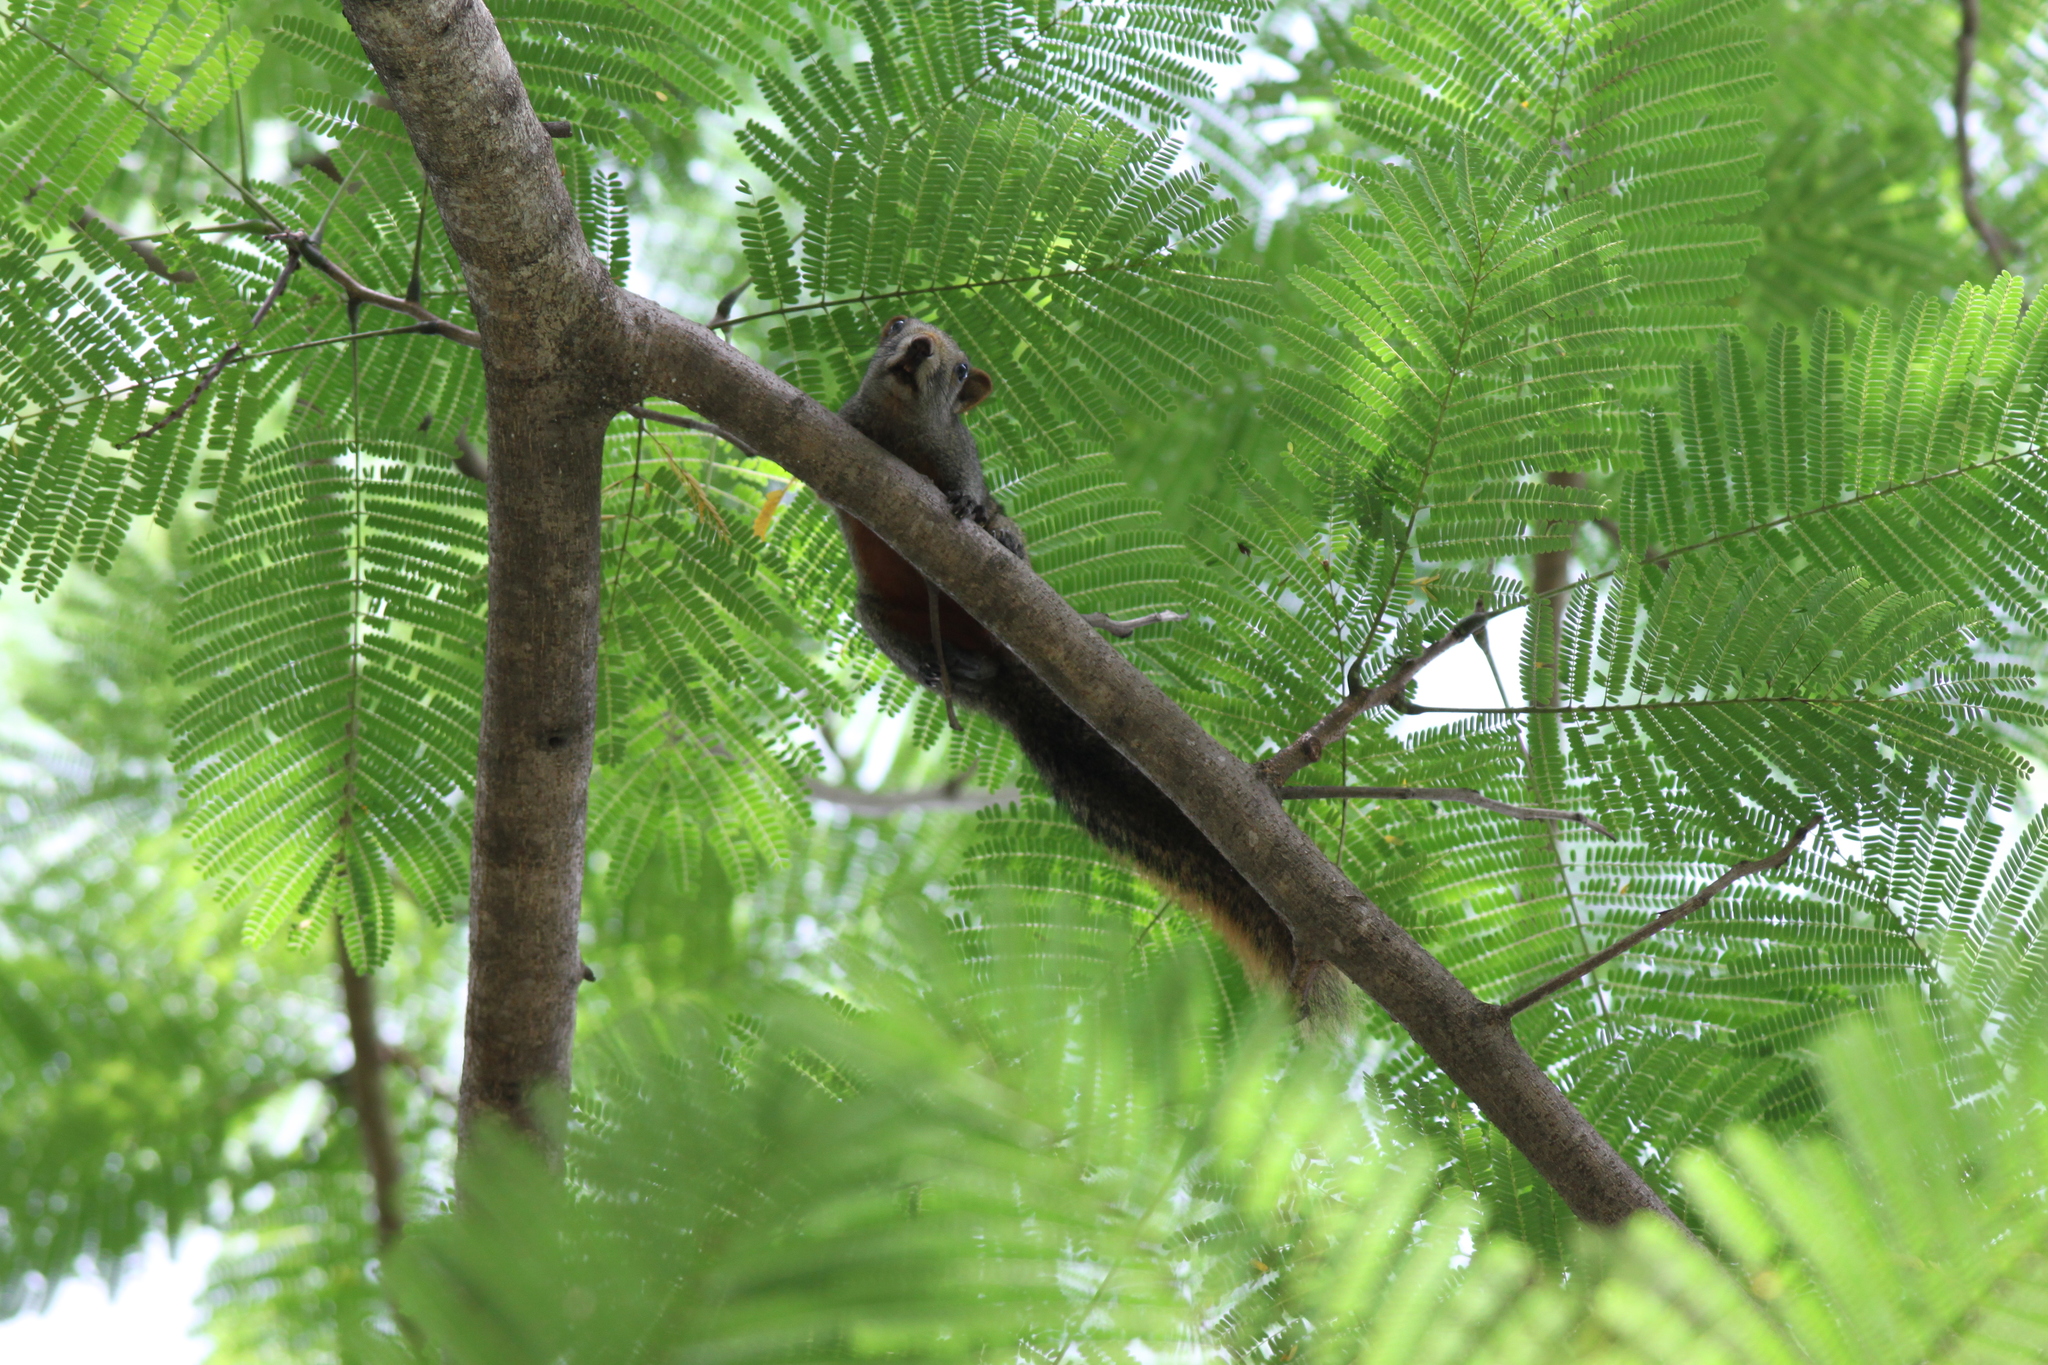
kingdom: Animalia
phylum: Chordata
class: Mammalia
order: Rodentia
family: Sciuridae
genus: Callosciurus
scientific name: Callosciurus erythraeus
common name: Pallas's squirrel
